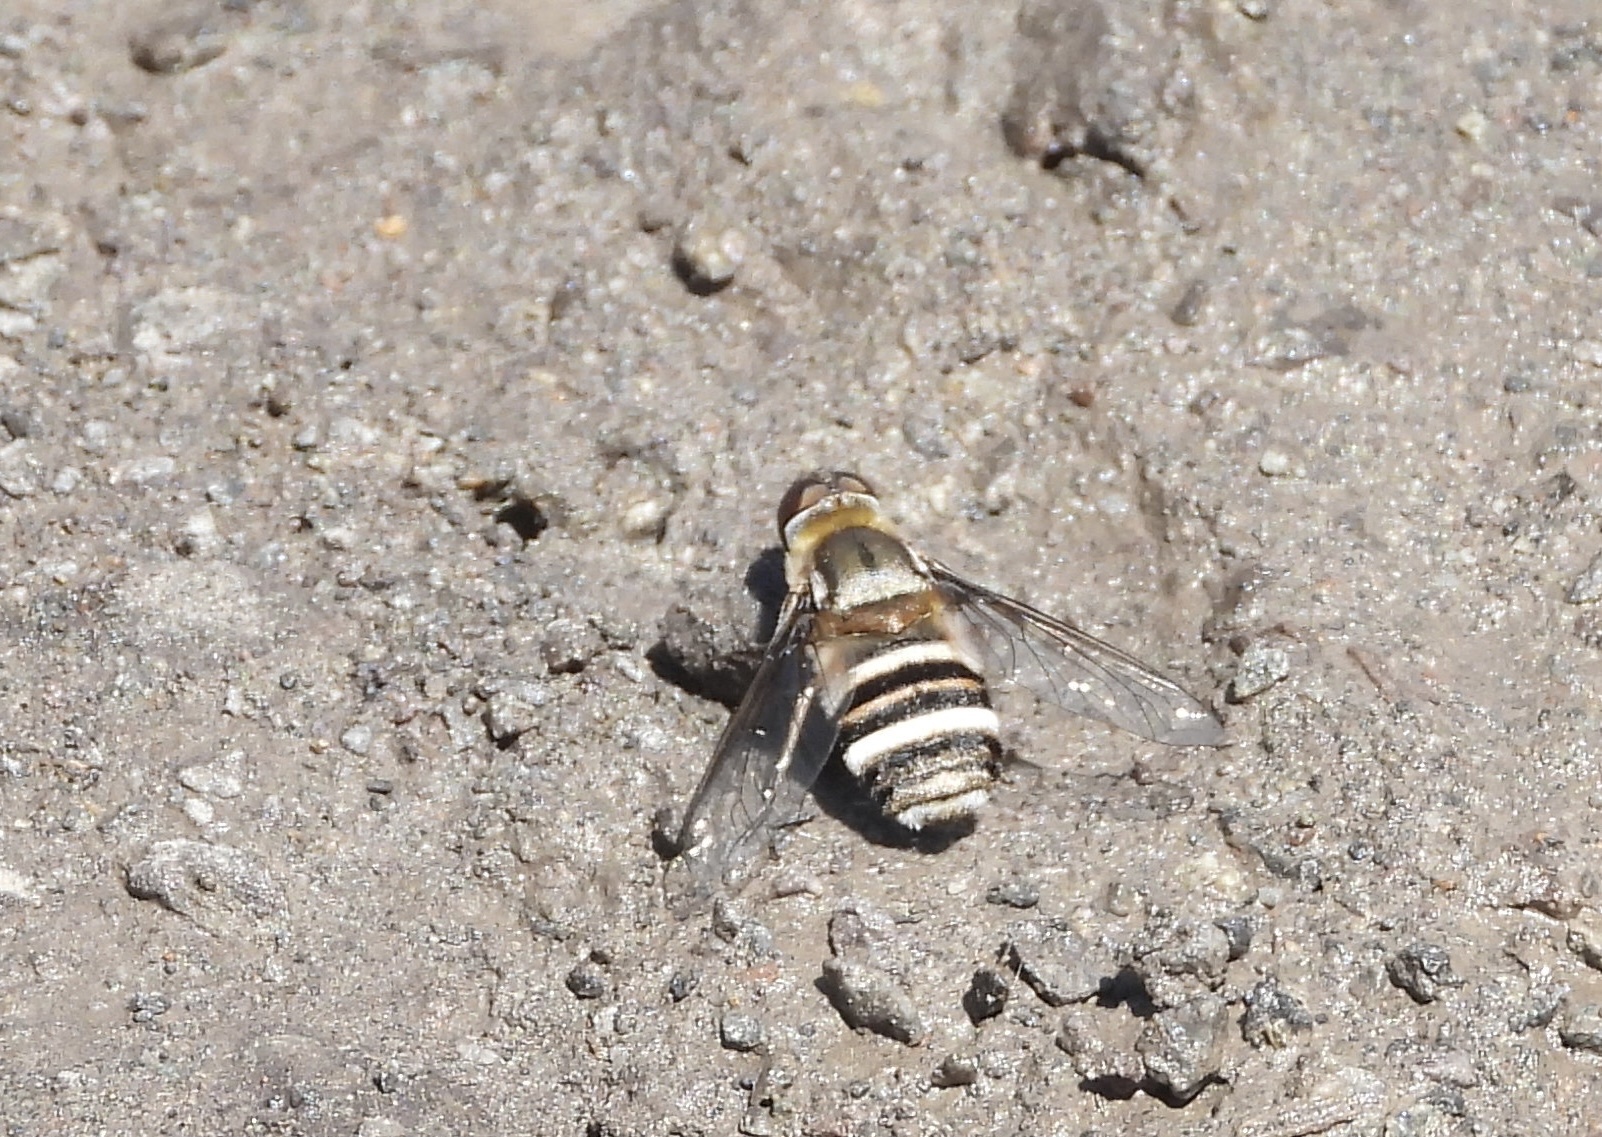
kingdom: Animalia
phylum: Arthropoda
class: Insecta
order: Diptera
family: Bombyliidae
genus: Villa
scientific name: Villa festiva
